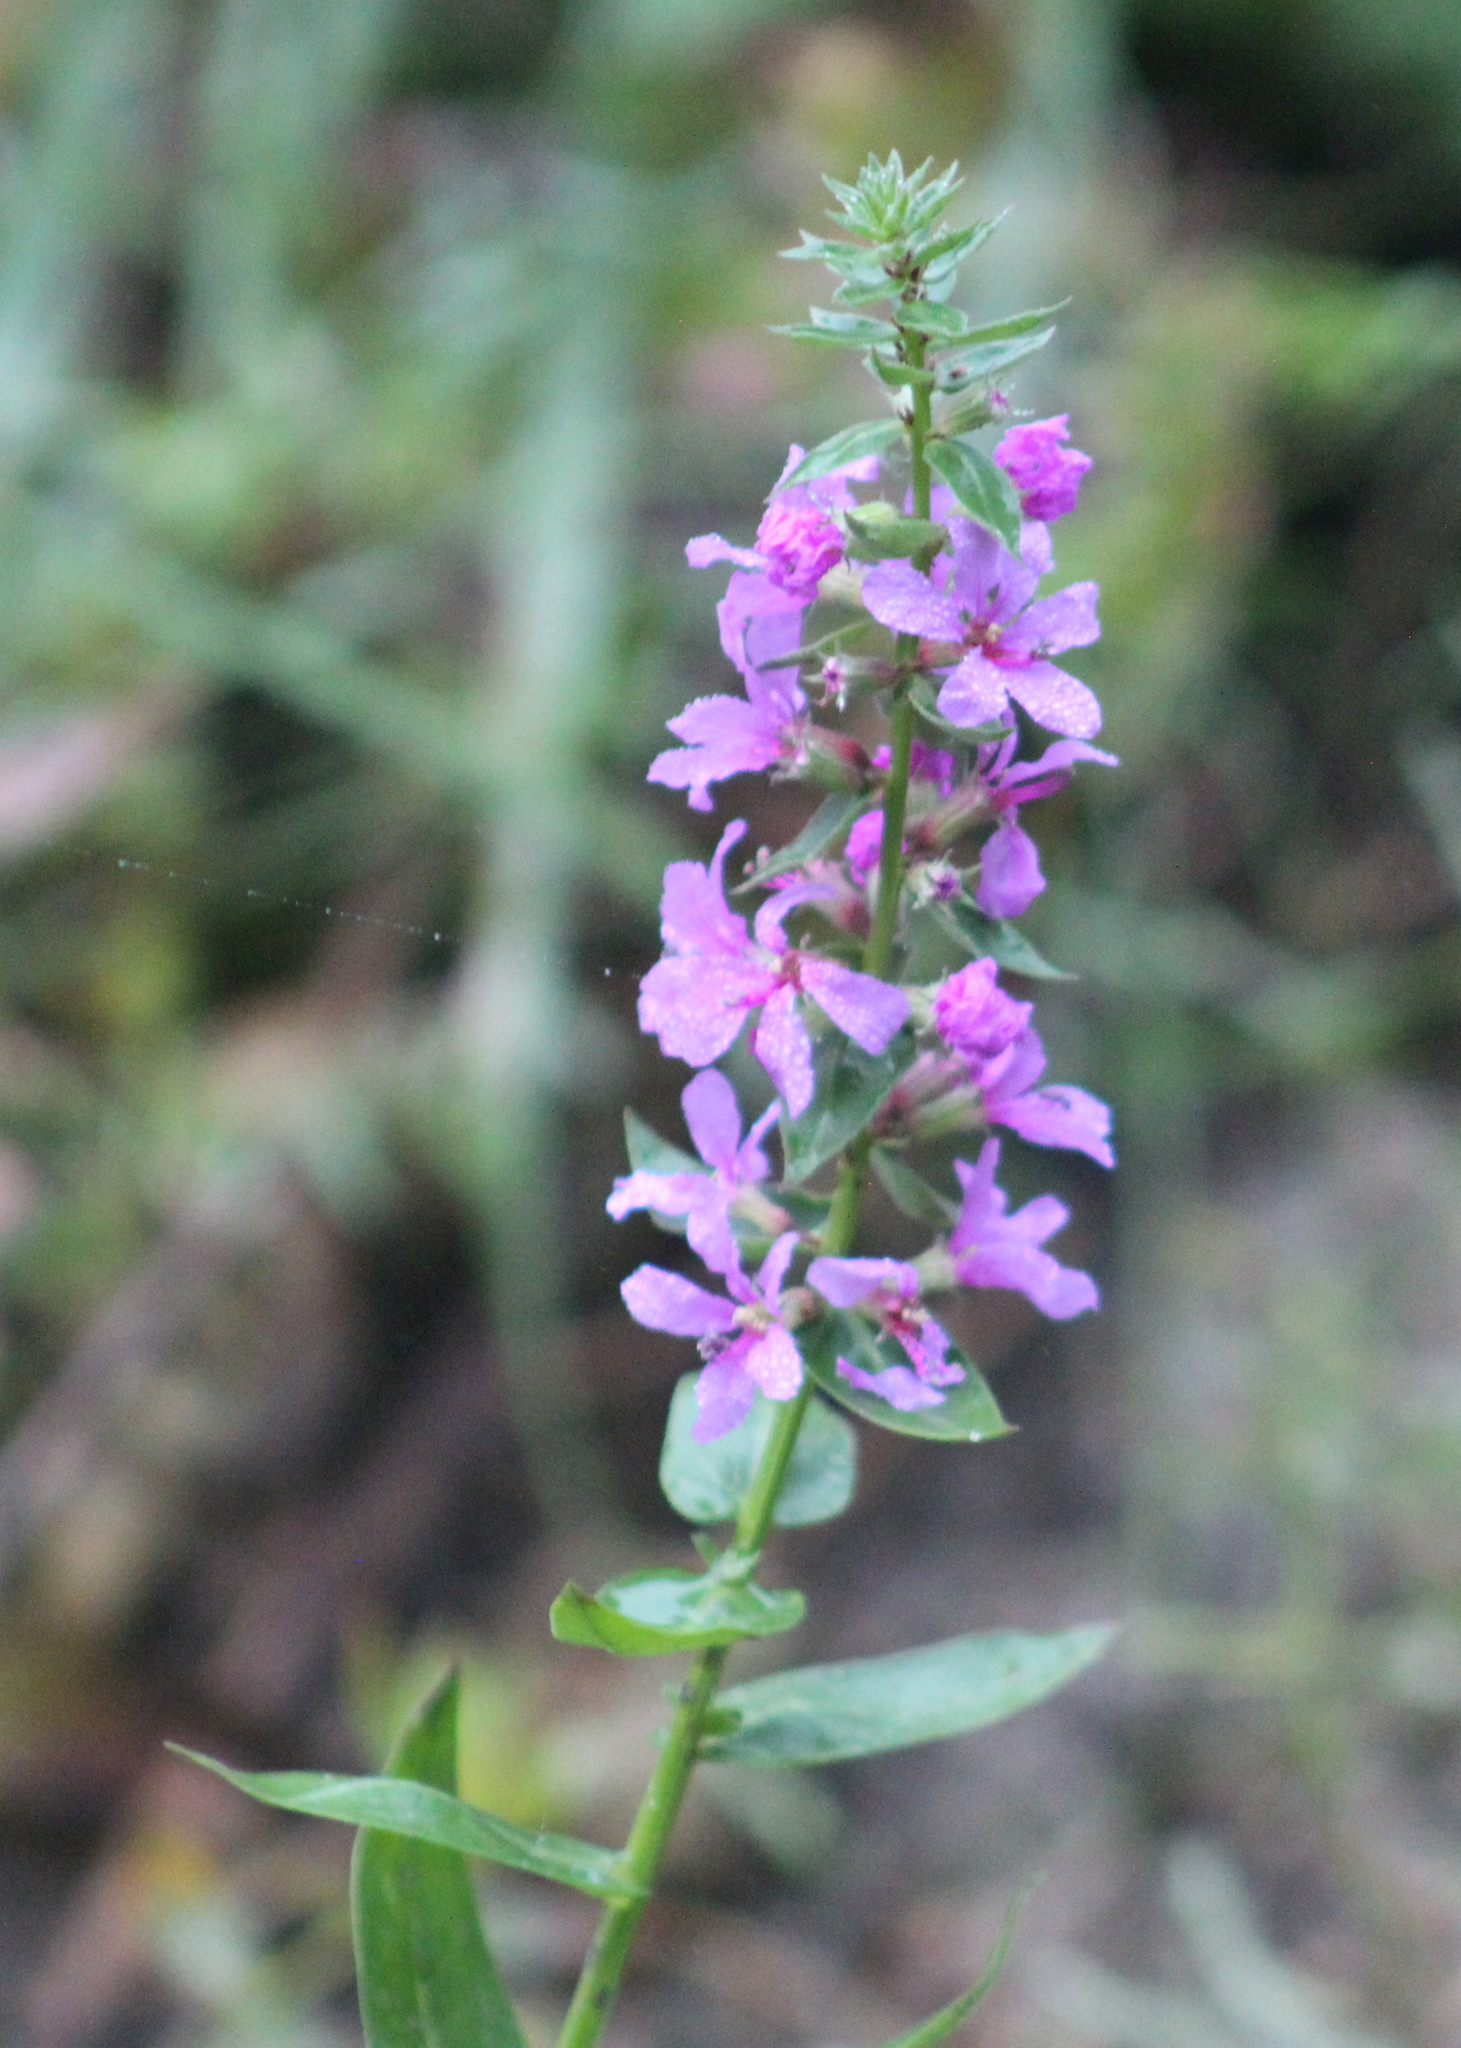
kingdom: Plantae
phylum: Tracheophyta
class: Magnoliopsida
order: Myrtales
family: Lythraceae
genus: Lythrum
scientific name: Lythrum salicaria
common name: Purple loosestrife
